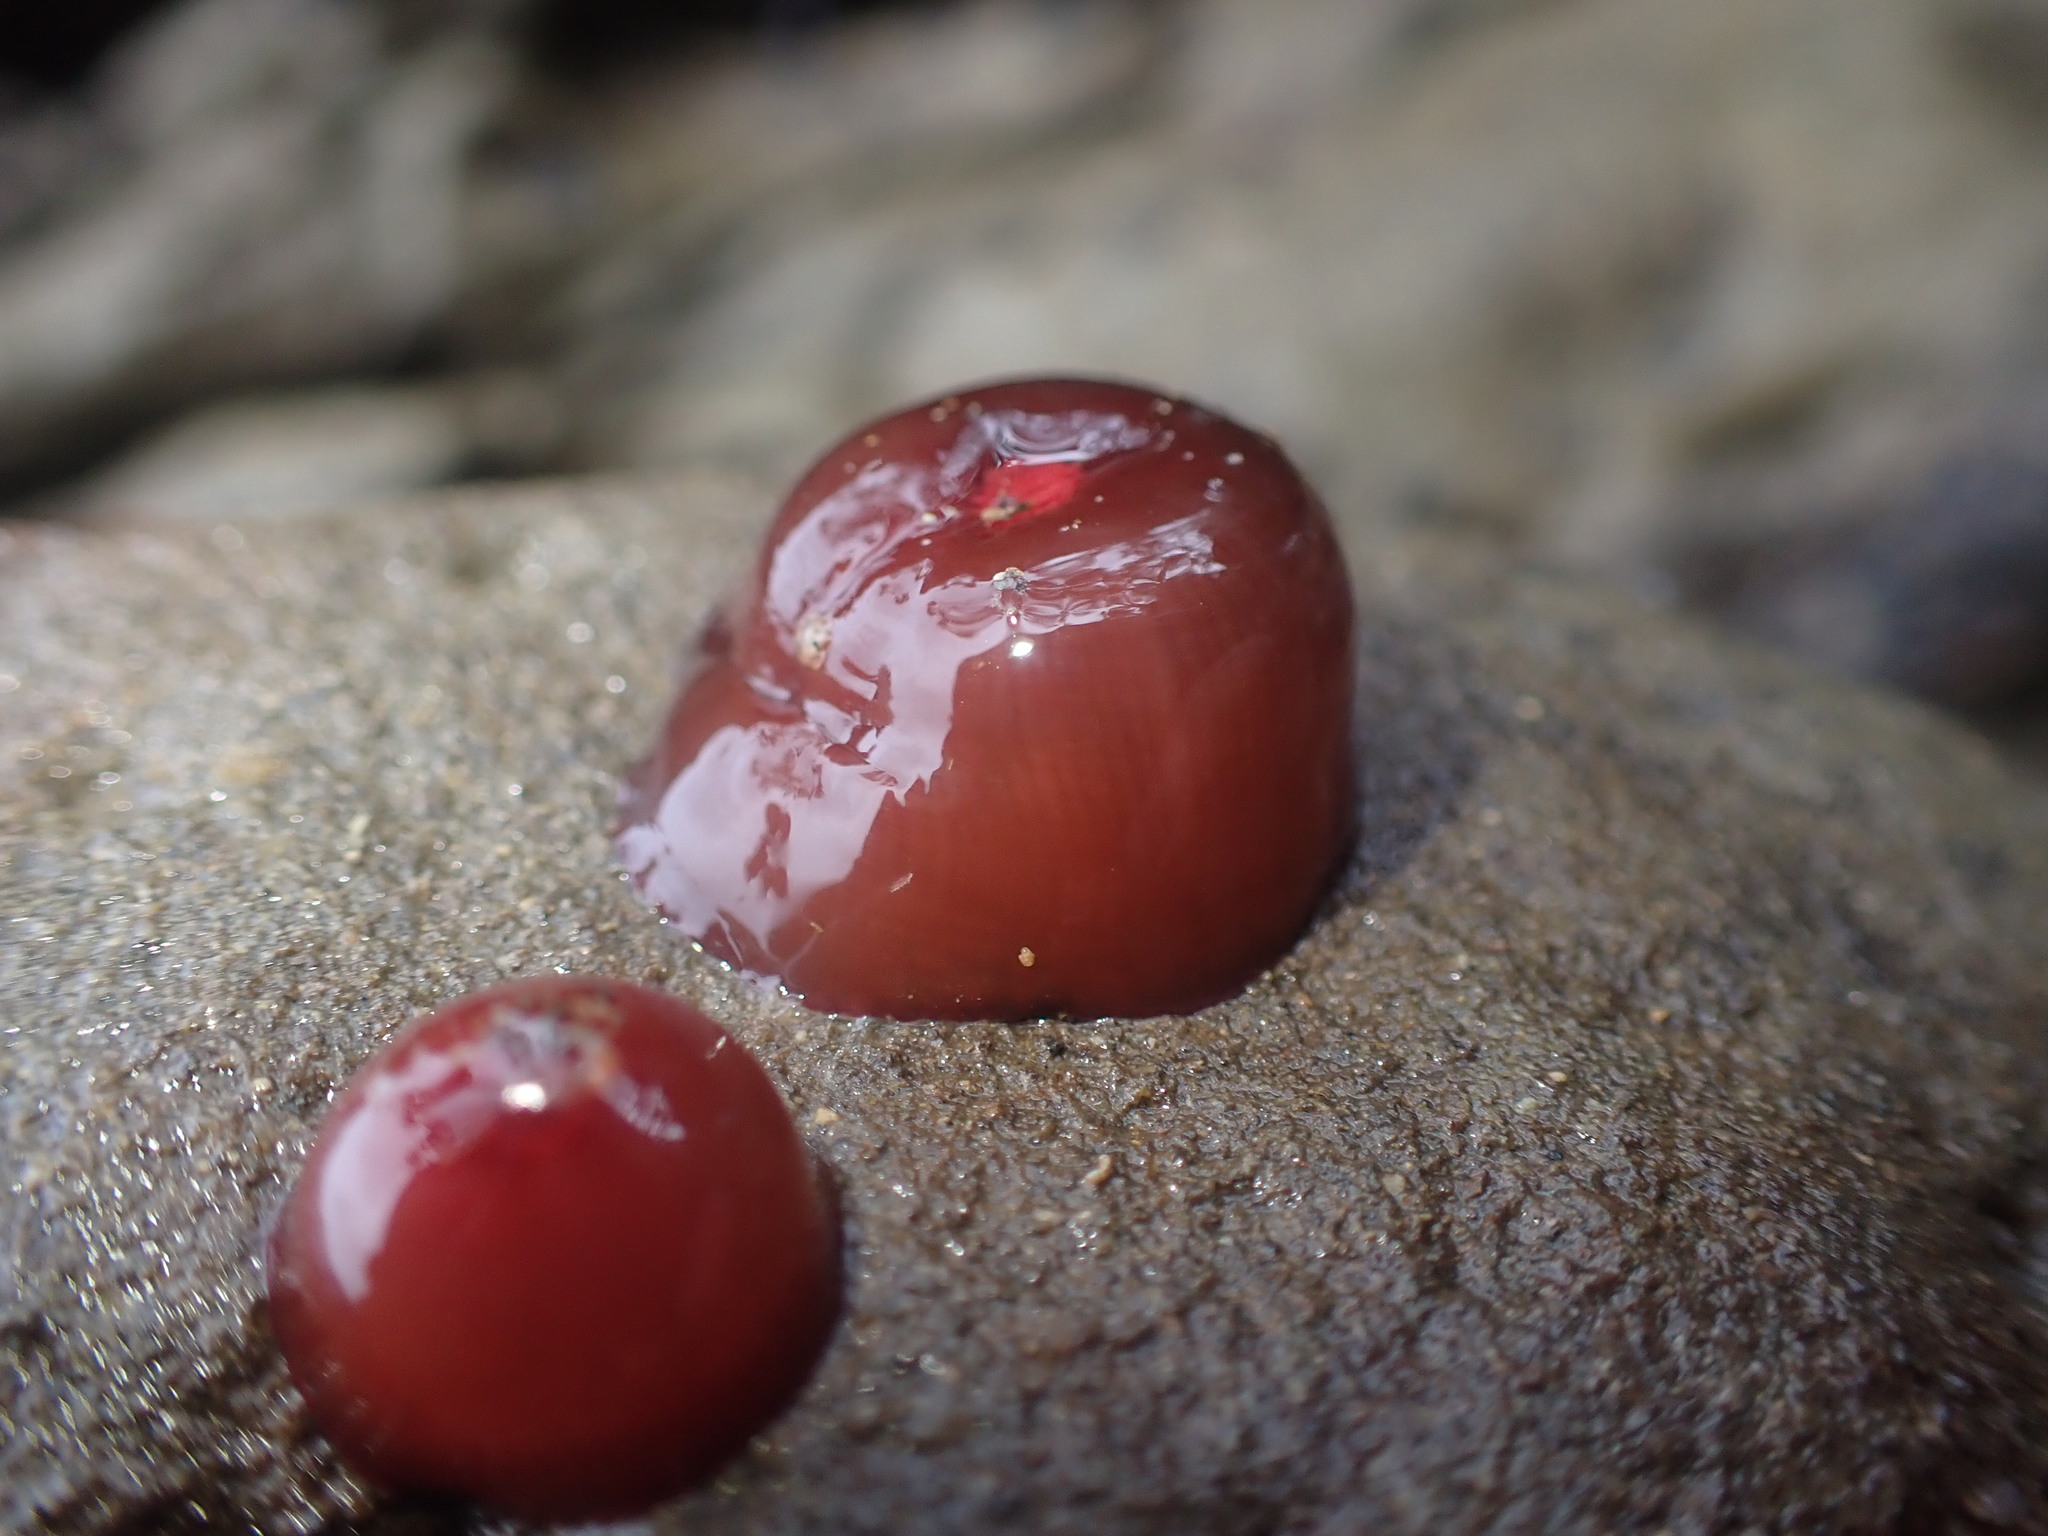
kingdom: Animalia
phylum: Cnidaria
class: Anthozoa
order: Actiniaria
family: Actiniidae
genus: Actinia
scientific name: Actinia tenebrosa
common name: Waratah anemone
